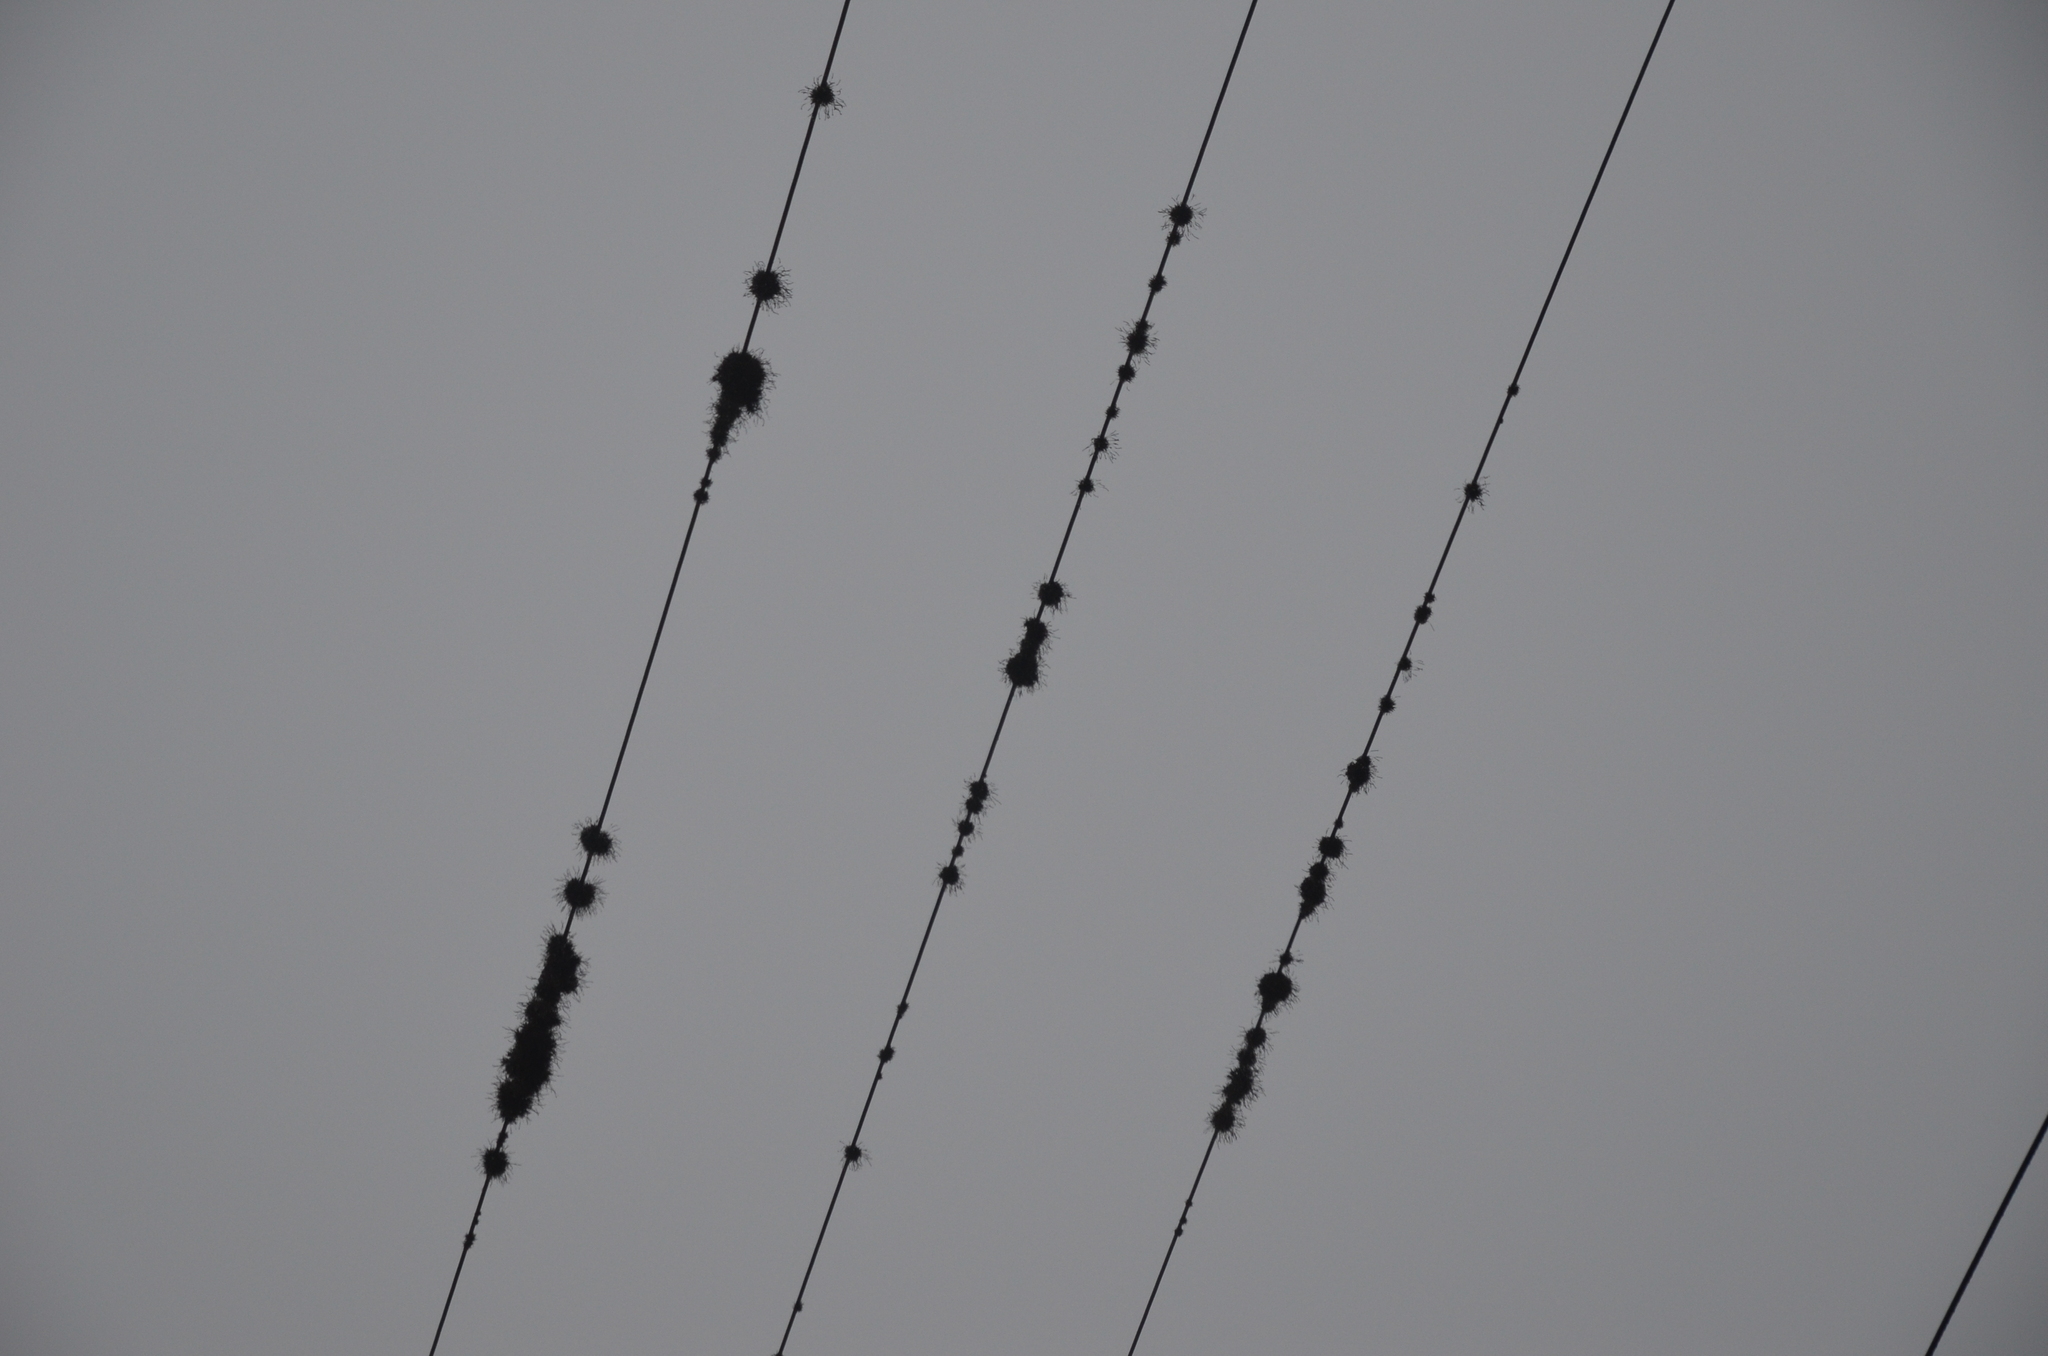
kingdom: Plantae
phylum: Tracheophyta
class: Liliopsida
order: Poales
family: Bromeliaceae
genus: Tillandsia
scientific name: Tillandsia recurvata
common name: Small ballmoss
